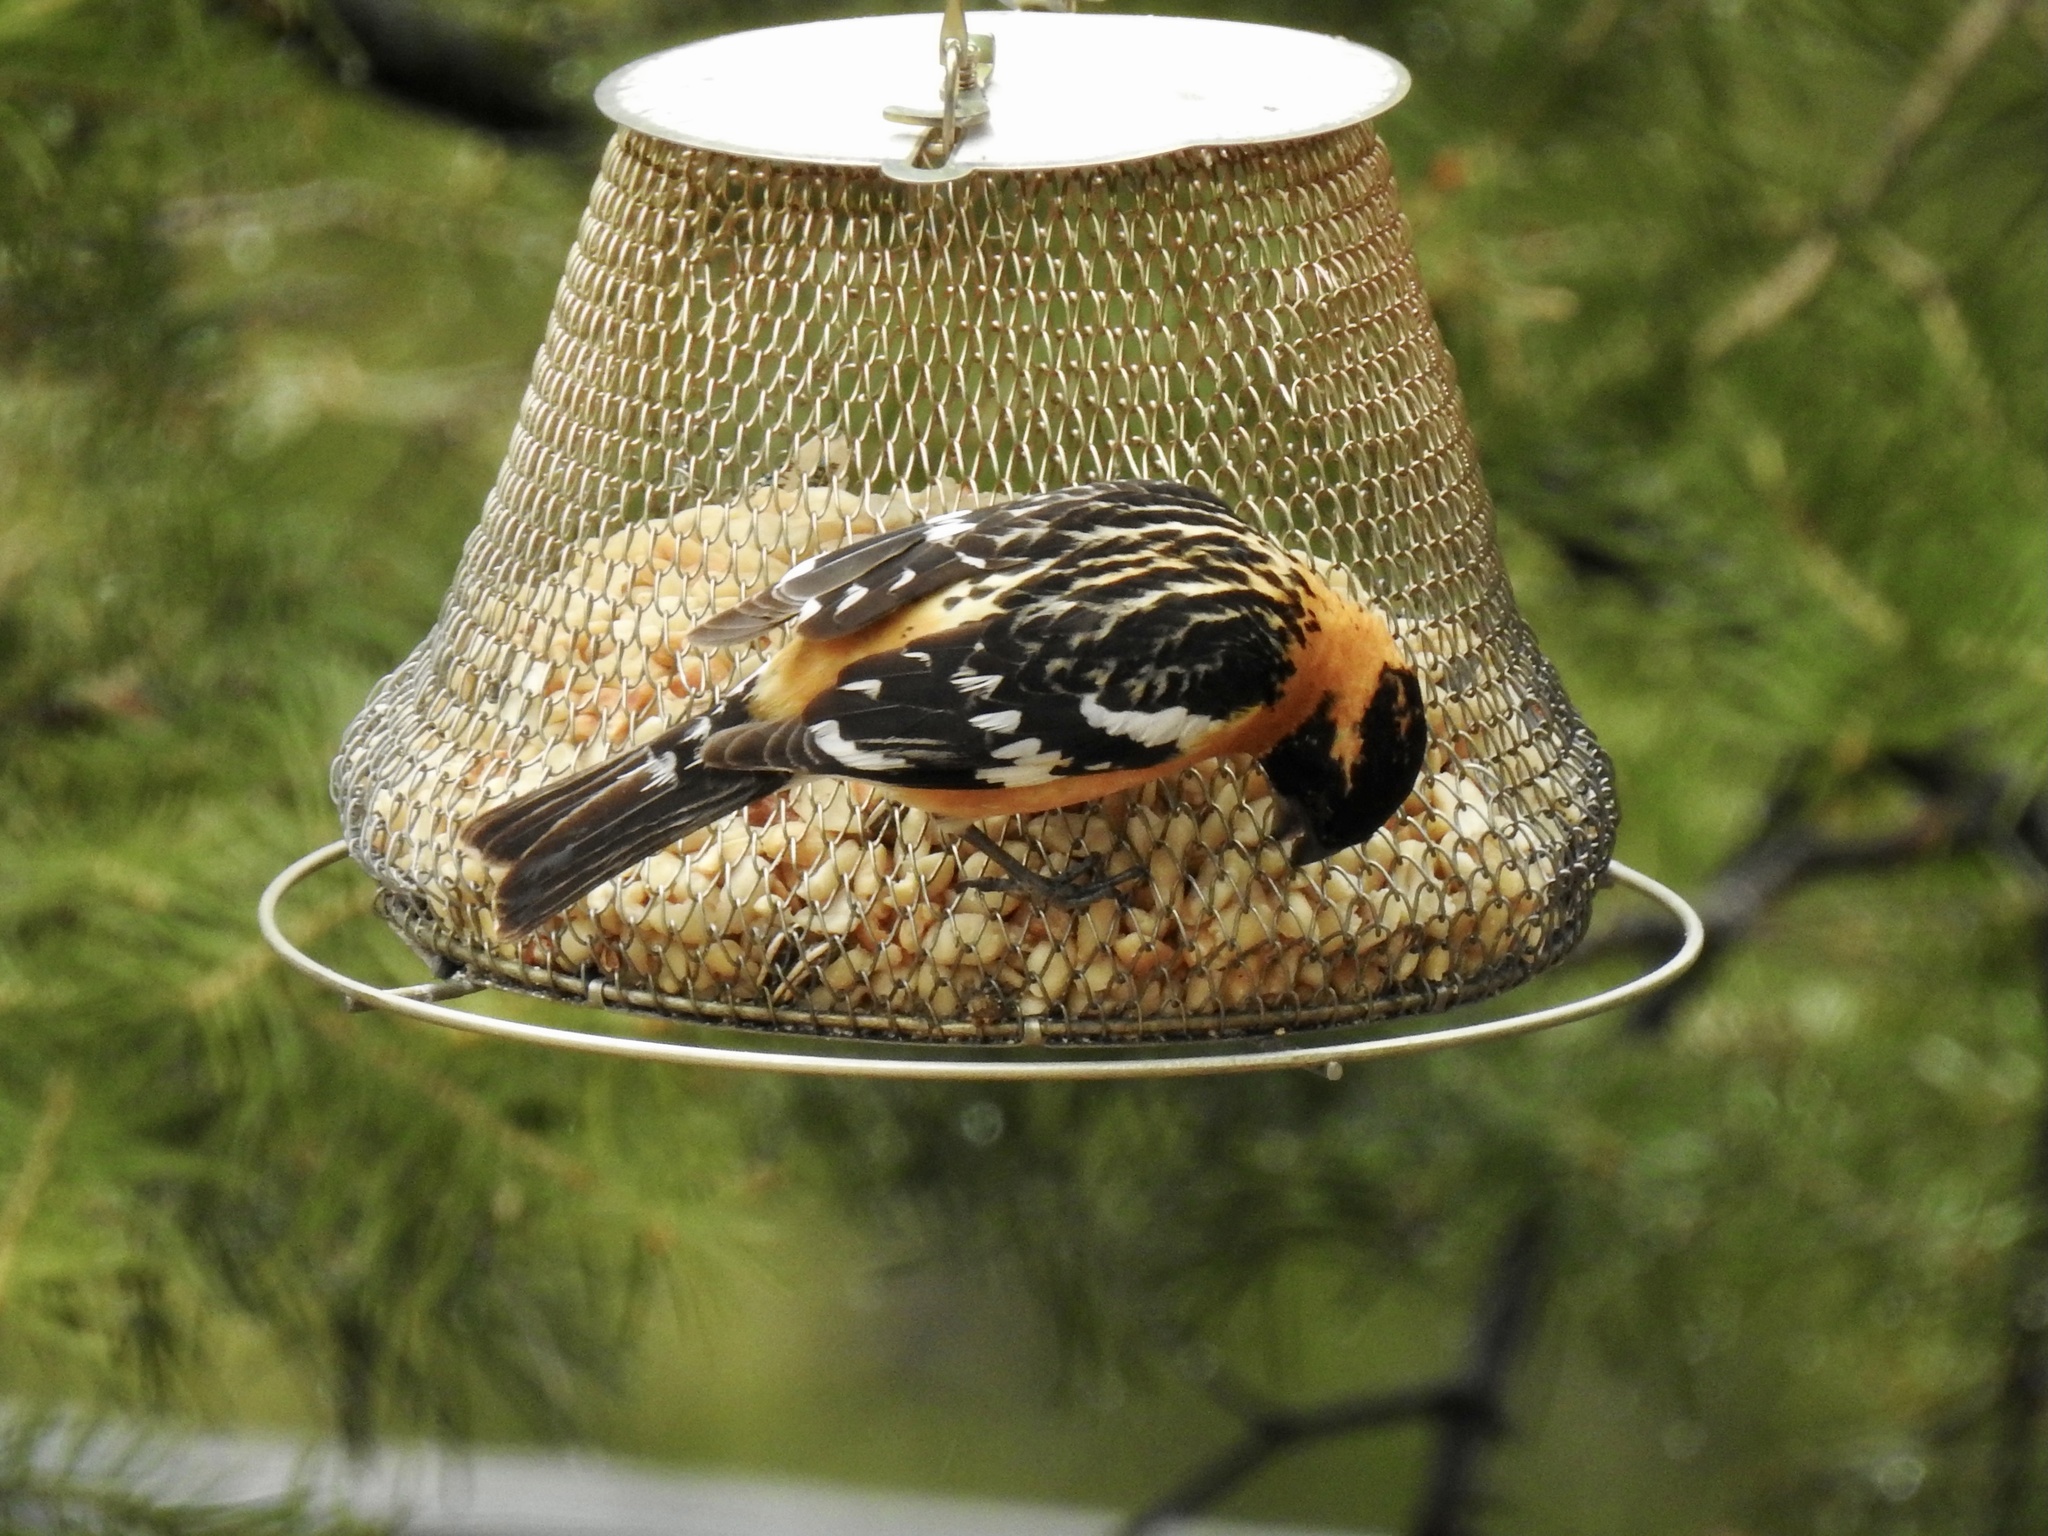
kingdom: Animalia
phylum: Chordata
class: Aves
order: Passeriformes
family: Cardinalidae
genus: Pheucticus
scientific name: Pheucticus melanocephalus
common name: Black-headed grosbeak
